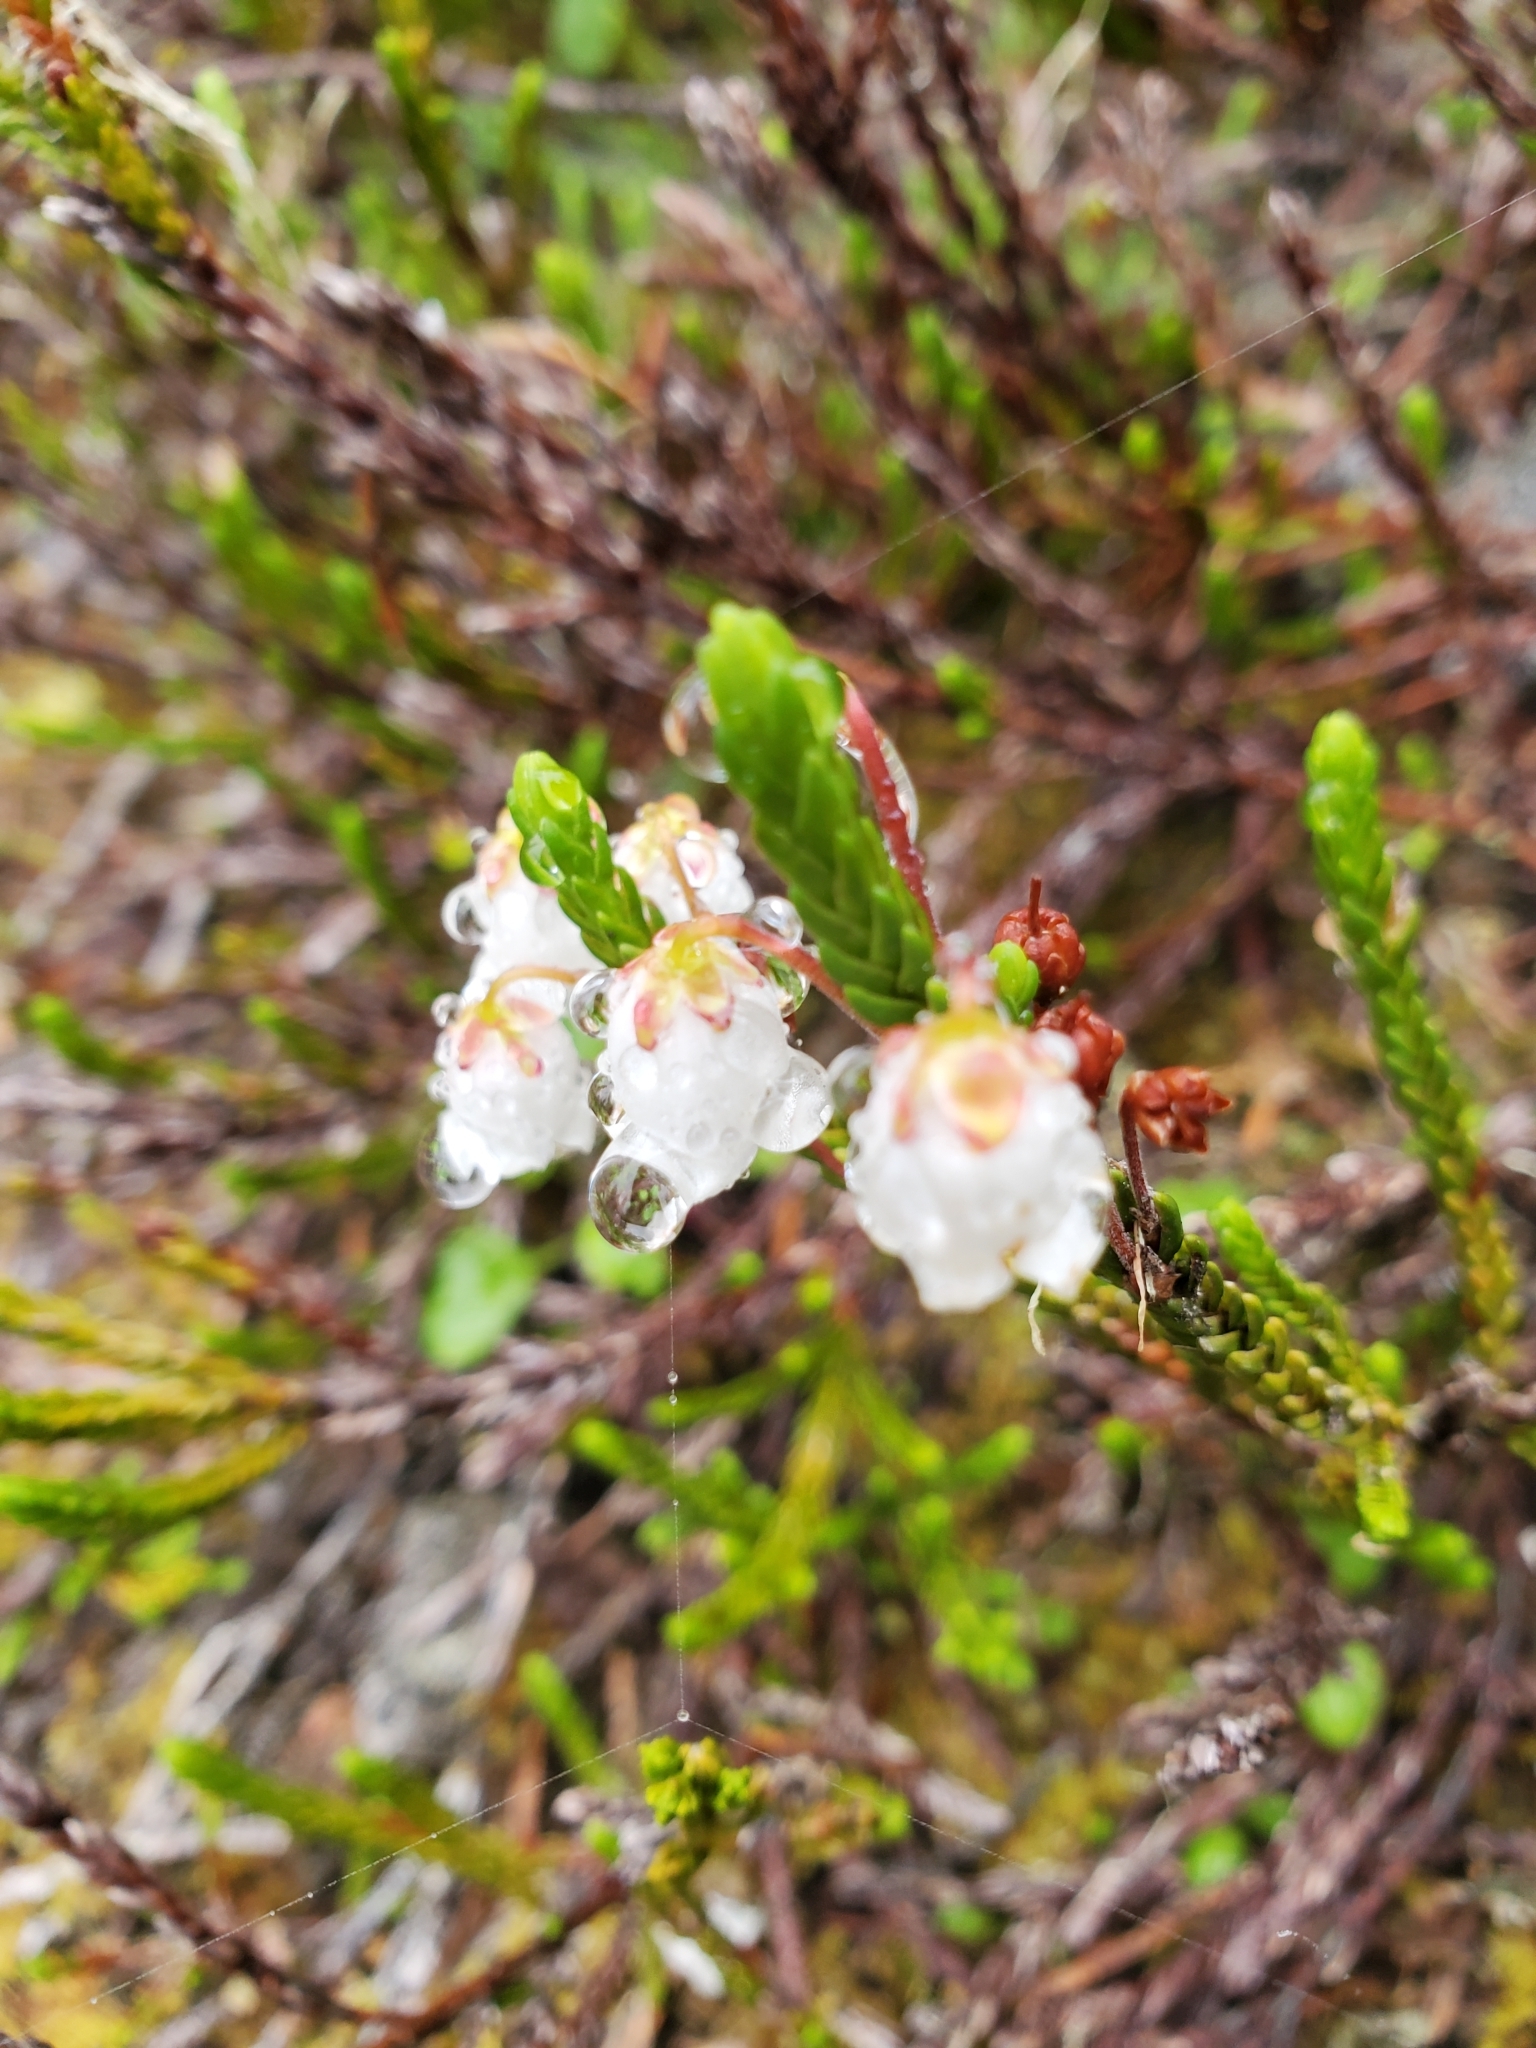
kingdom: Plantae
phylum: Tracheophyta
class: Magnoliopsida
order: Ericales
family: Ericaceae
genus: Cassiope
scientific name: Cassiope mertensiana
